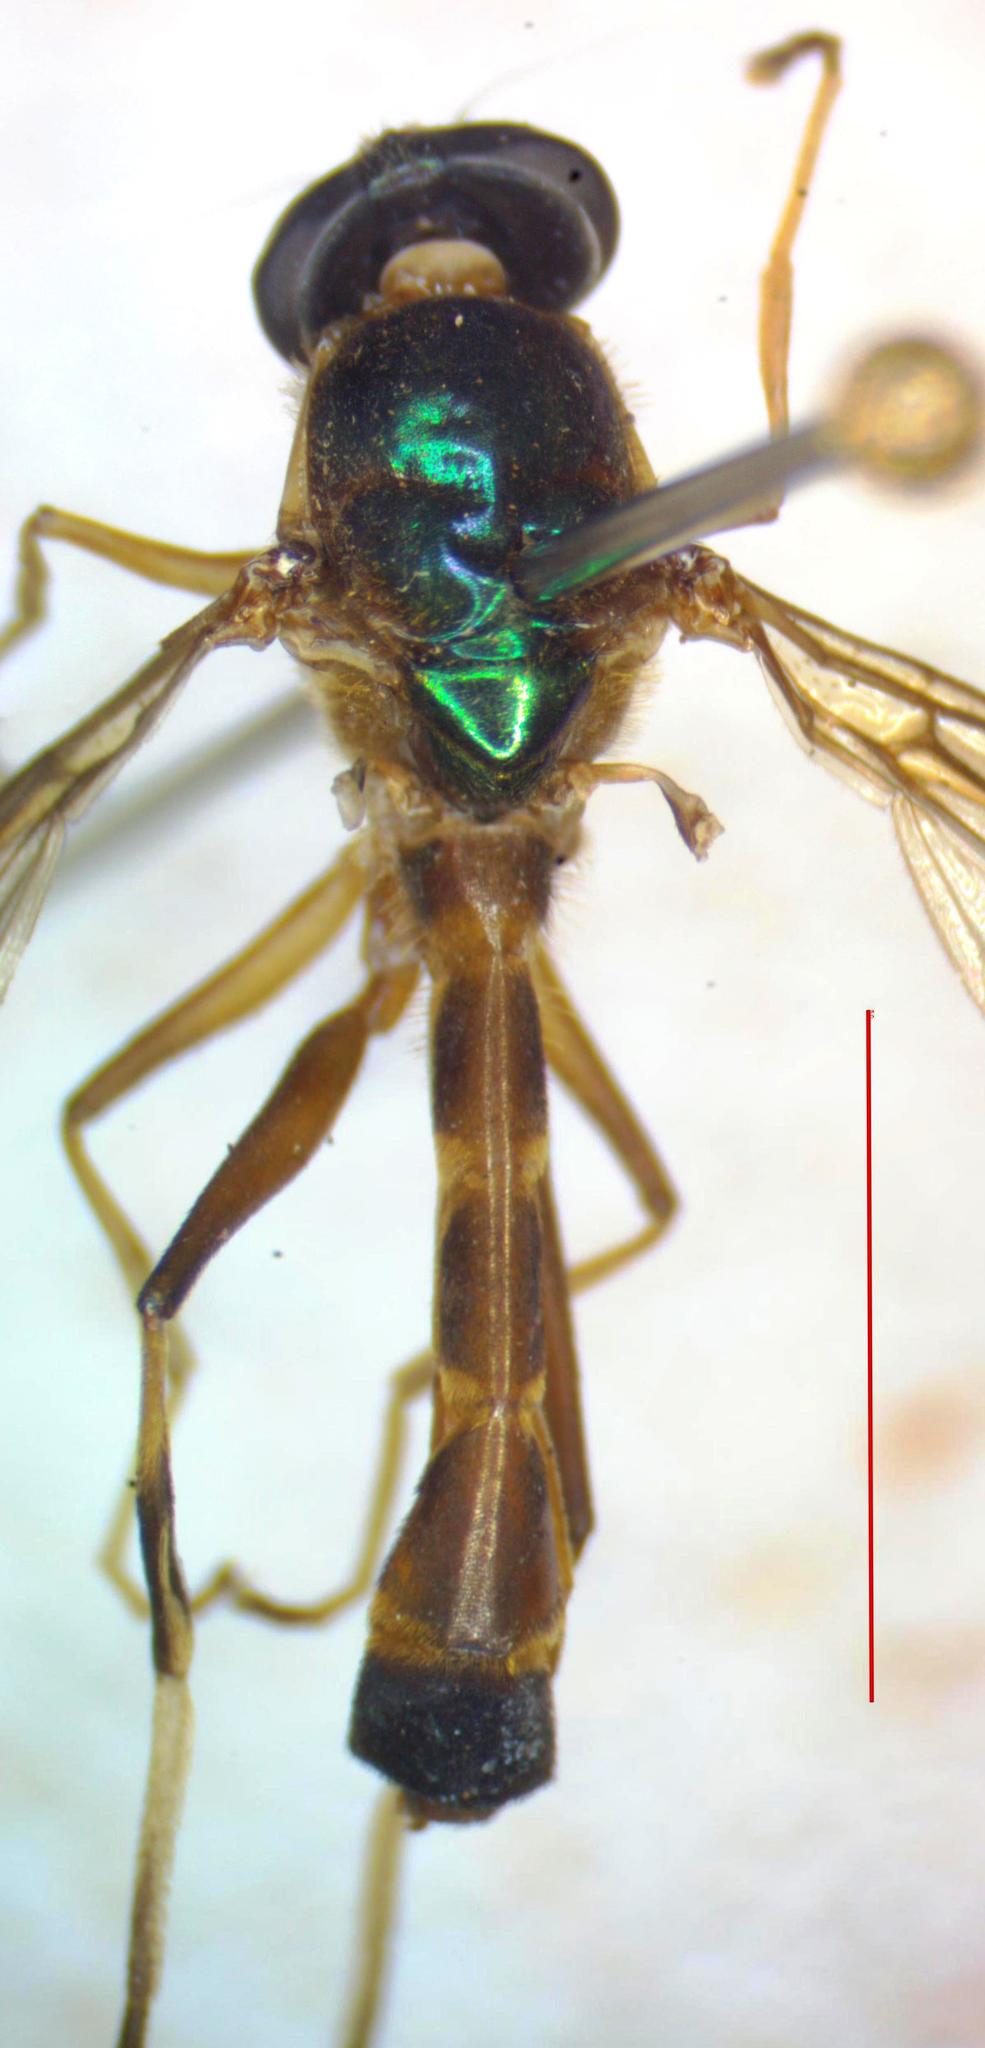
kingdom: Animalia
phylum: Arthropoda
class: Insecta
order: Diptera
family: Stratiomyidae
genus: Merosargus
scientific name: Merosargus bequaerti
